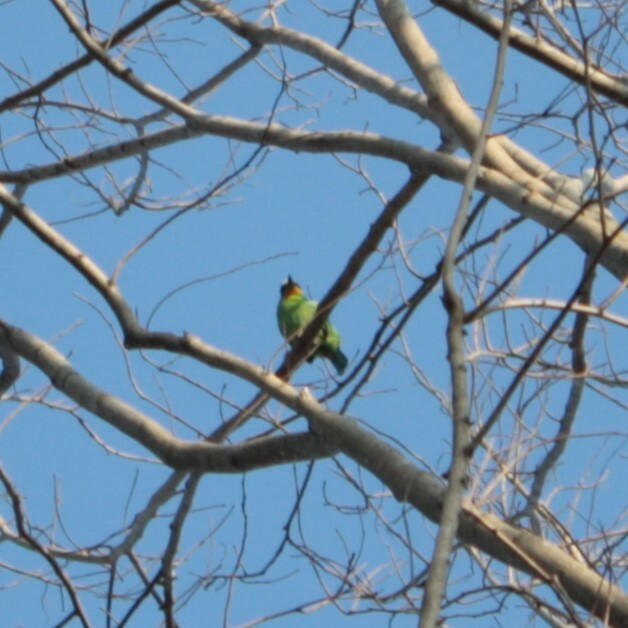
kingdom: Animalia
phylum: Chordata
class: Aves
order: Piciformes
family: Megalaimidae
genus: Psilopogon
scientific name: Psilopogon nuchalis
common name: Taiwan barbet
